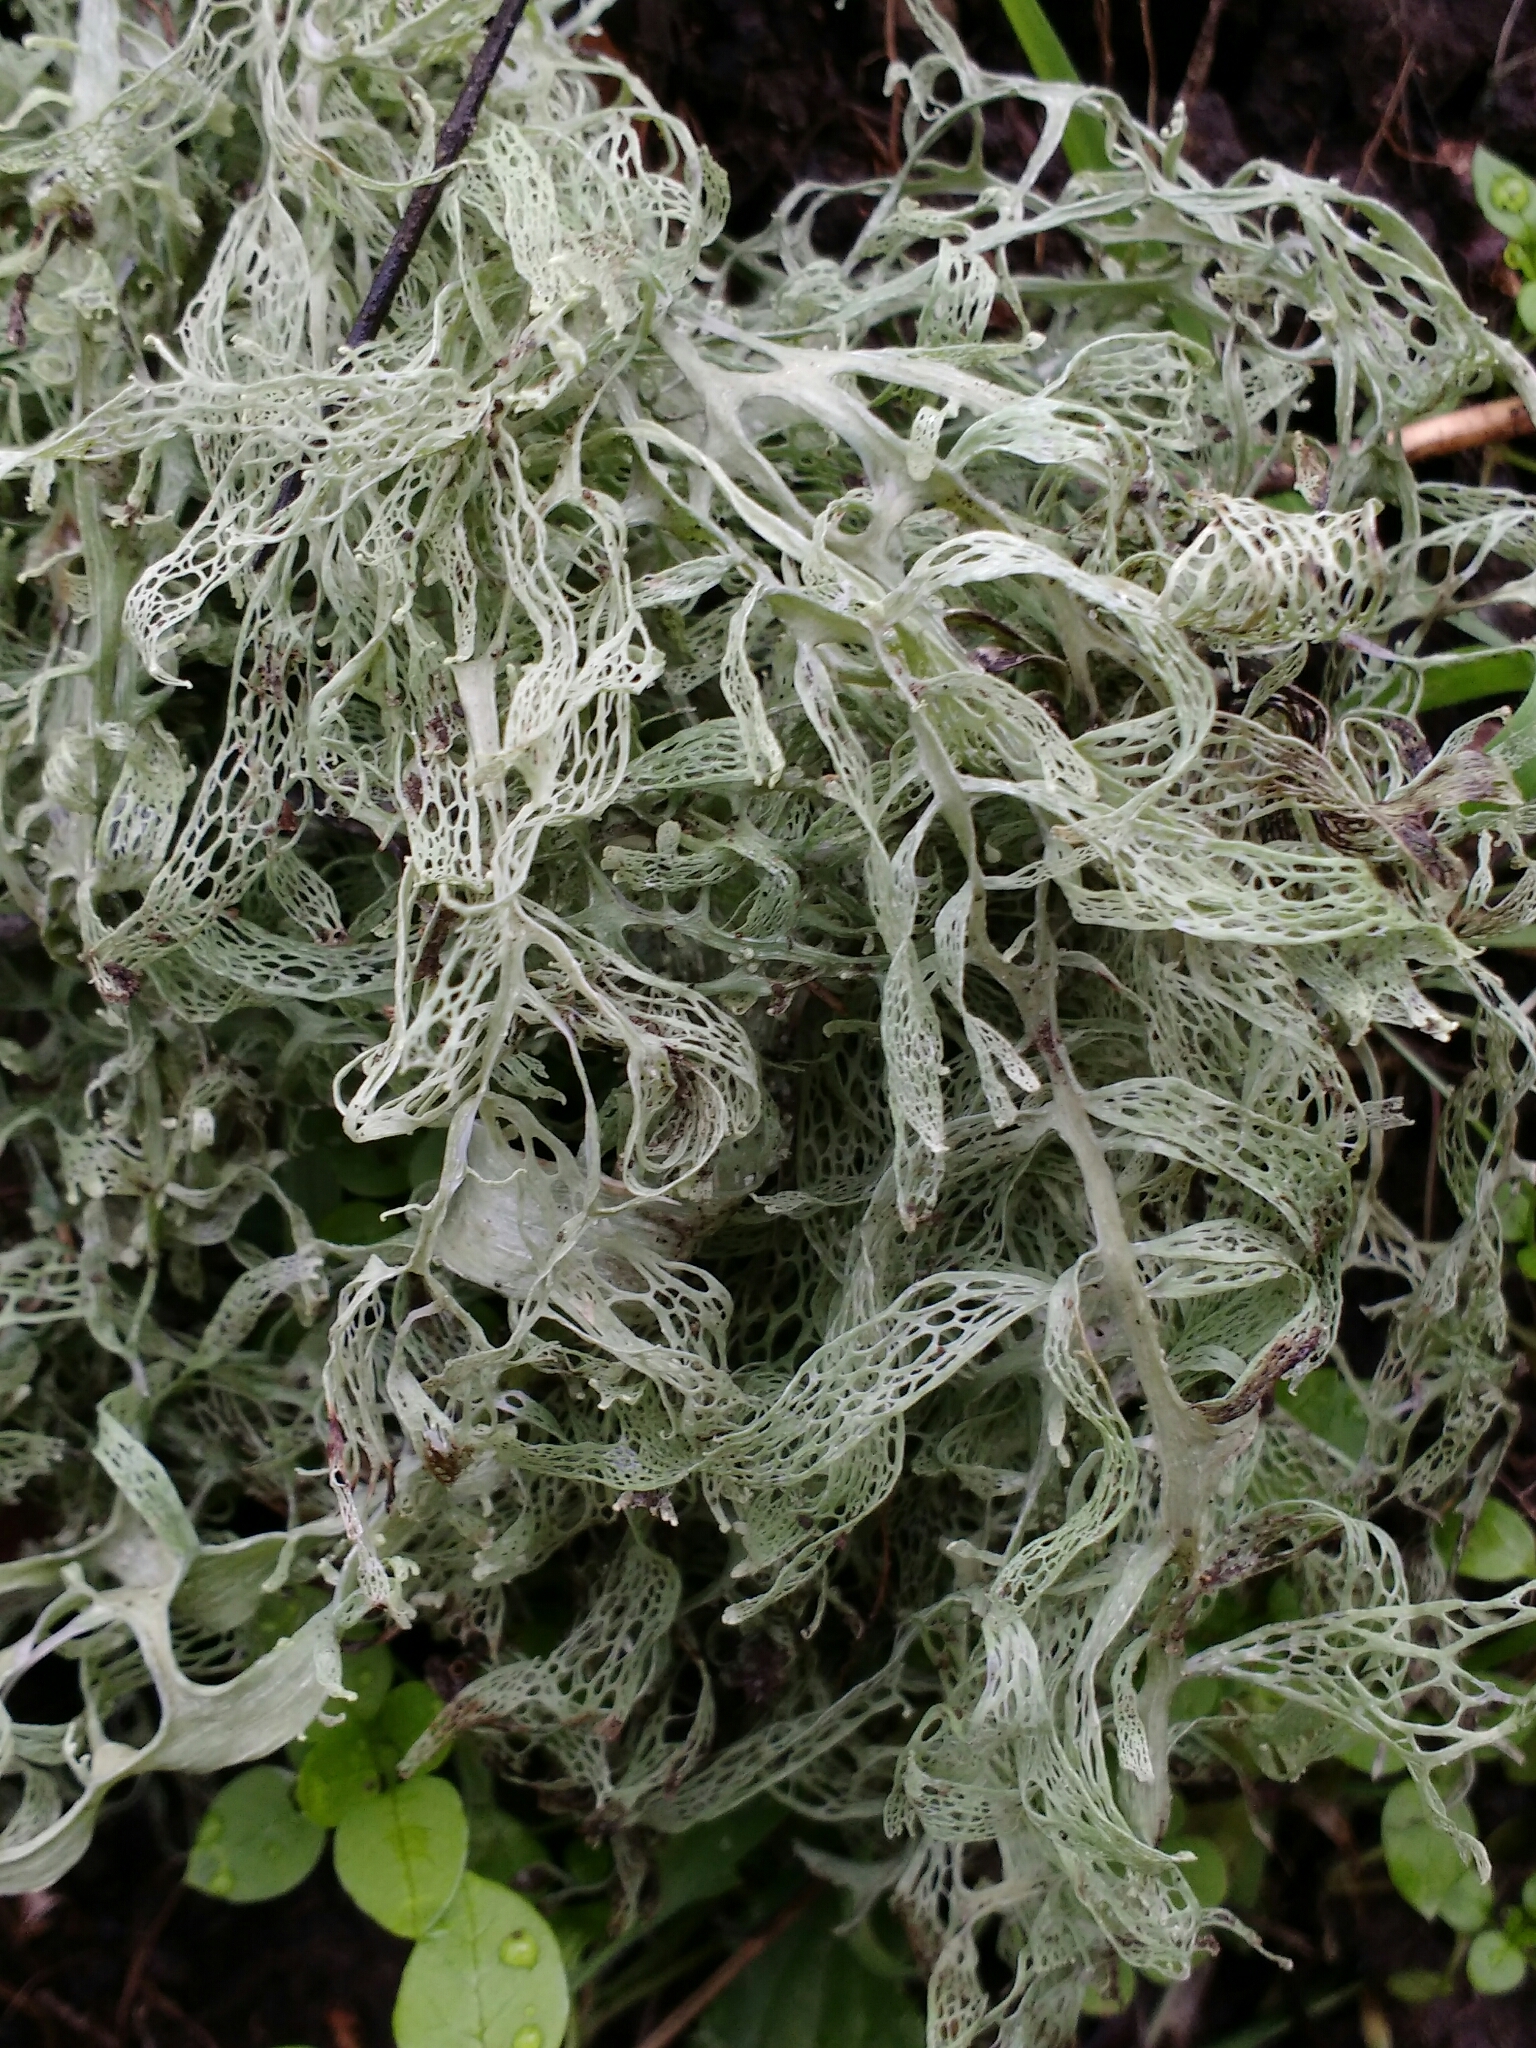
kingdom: Fungi
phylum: Ascomycota
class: Lecanoromycetes
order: Lecanorales
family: Ramalinaceae
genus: Ramalina
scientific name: Ramalina menziesii
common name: Lace lichen
